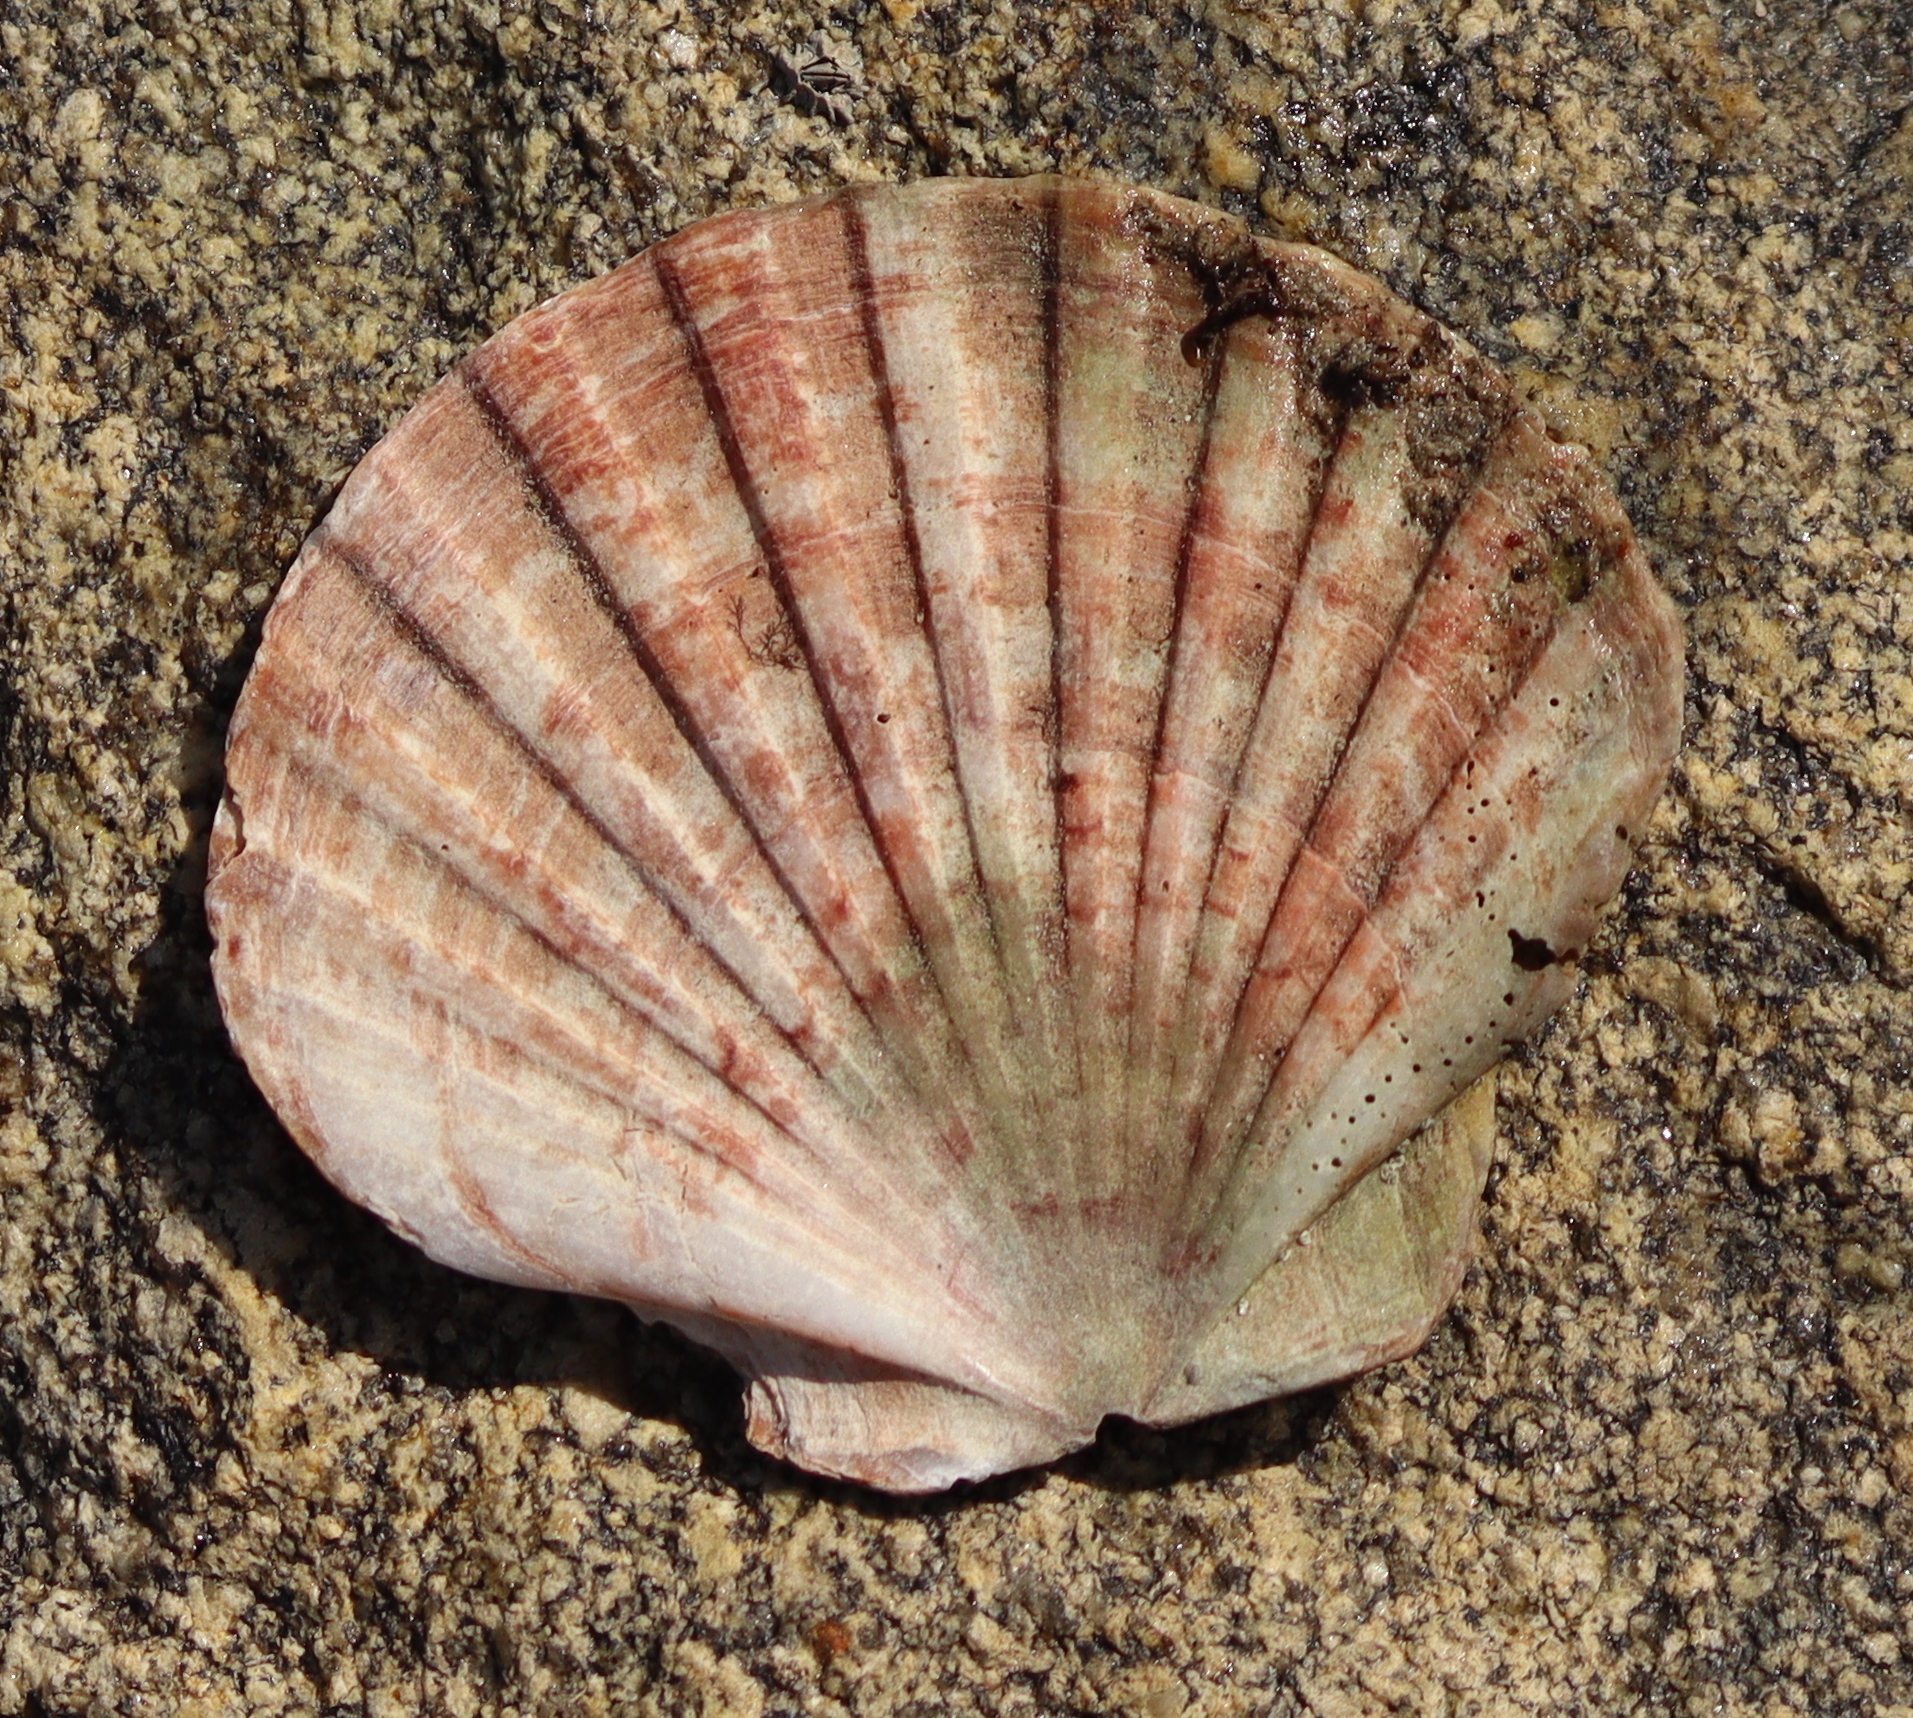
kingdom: Animalia
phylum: Mollusca
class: Bivalvia
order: Pectinida
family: Pectinidae
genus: Pecten
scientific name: Pecten maximus
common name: Great scallop
